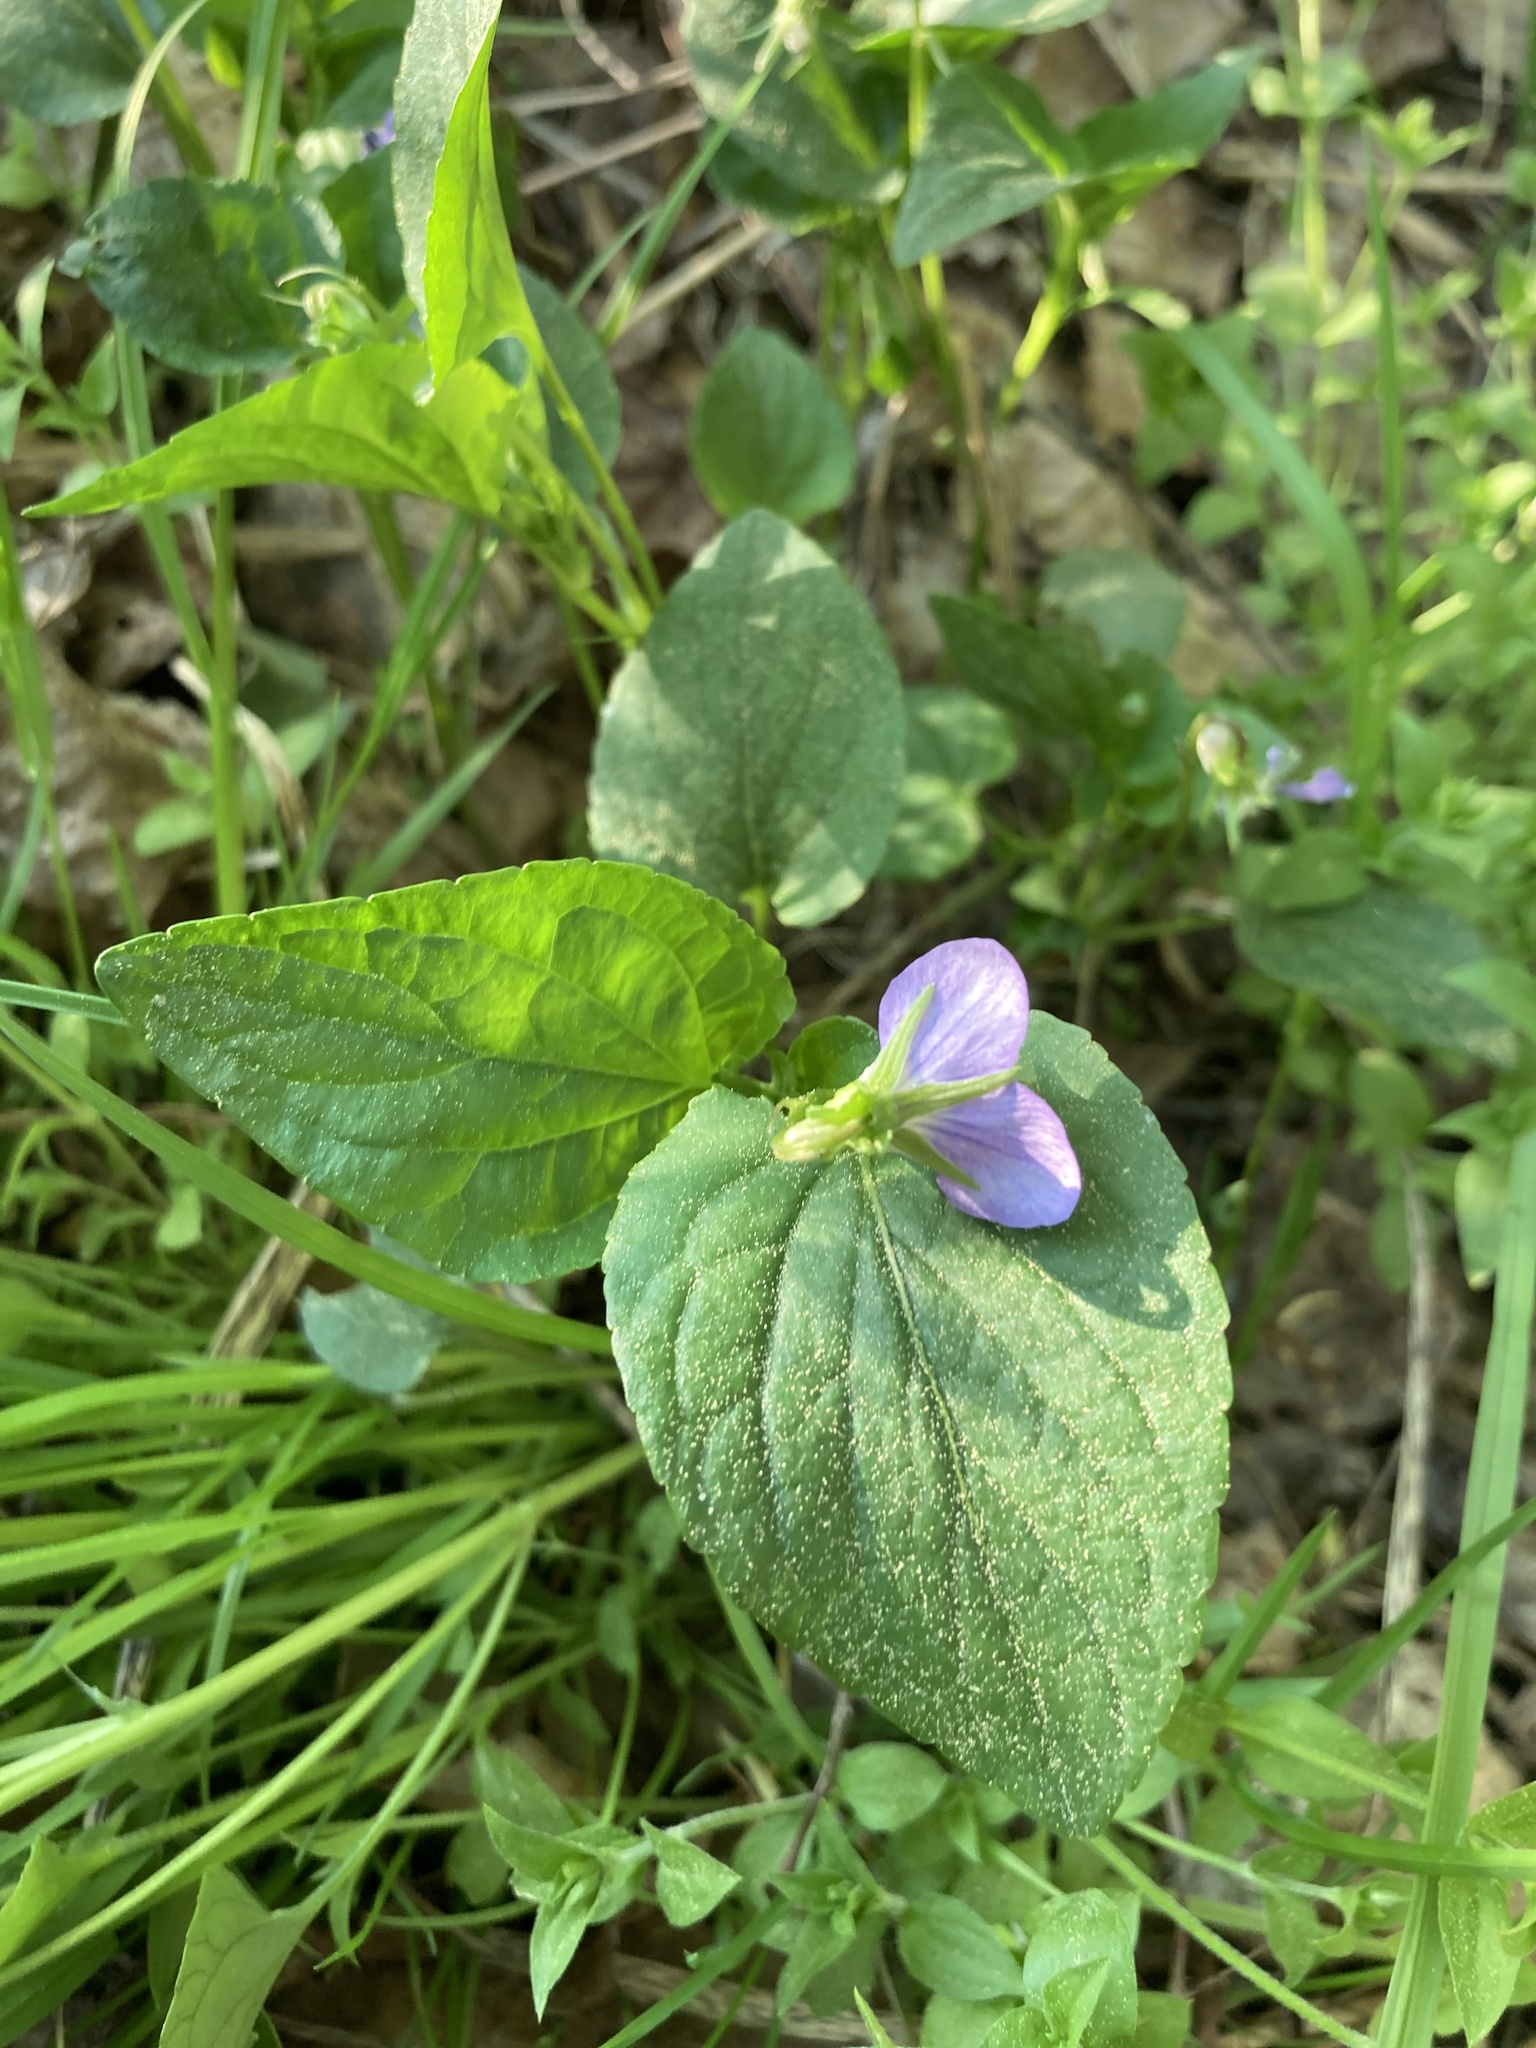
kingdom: Plantae
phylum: Tracheophyta
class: Magnoliopsida
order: Malpighiales
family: Violaceae
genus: Viola
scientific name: Viola
